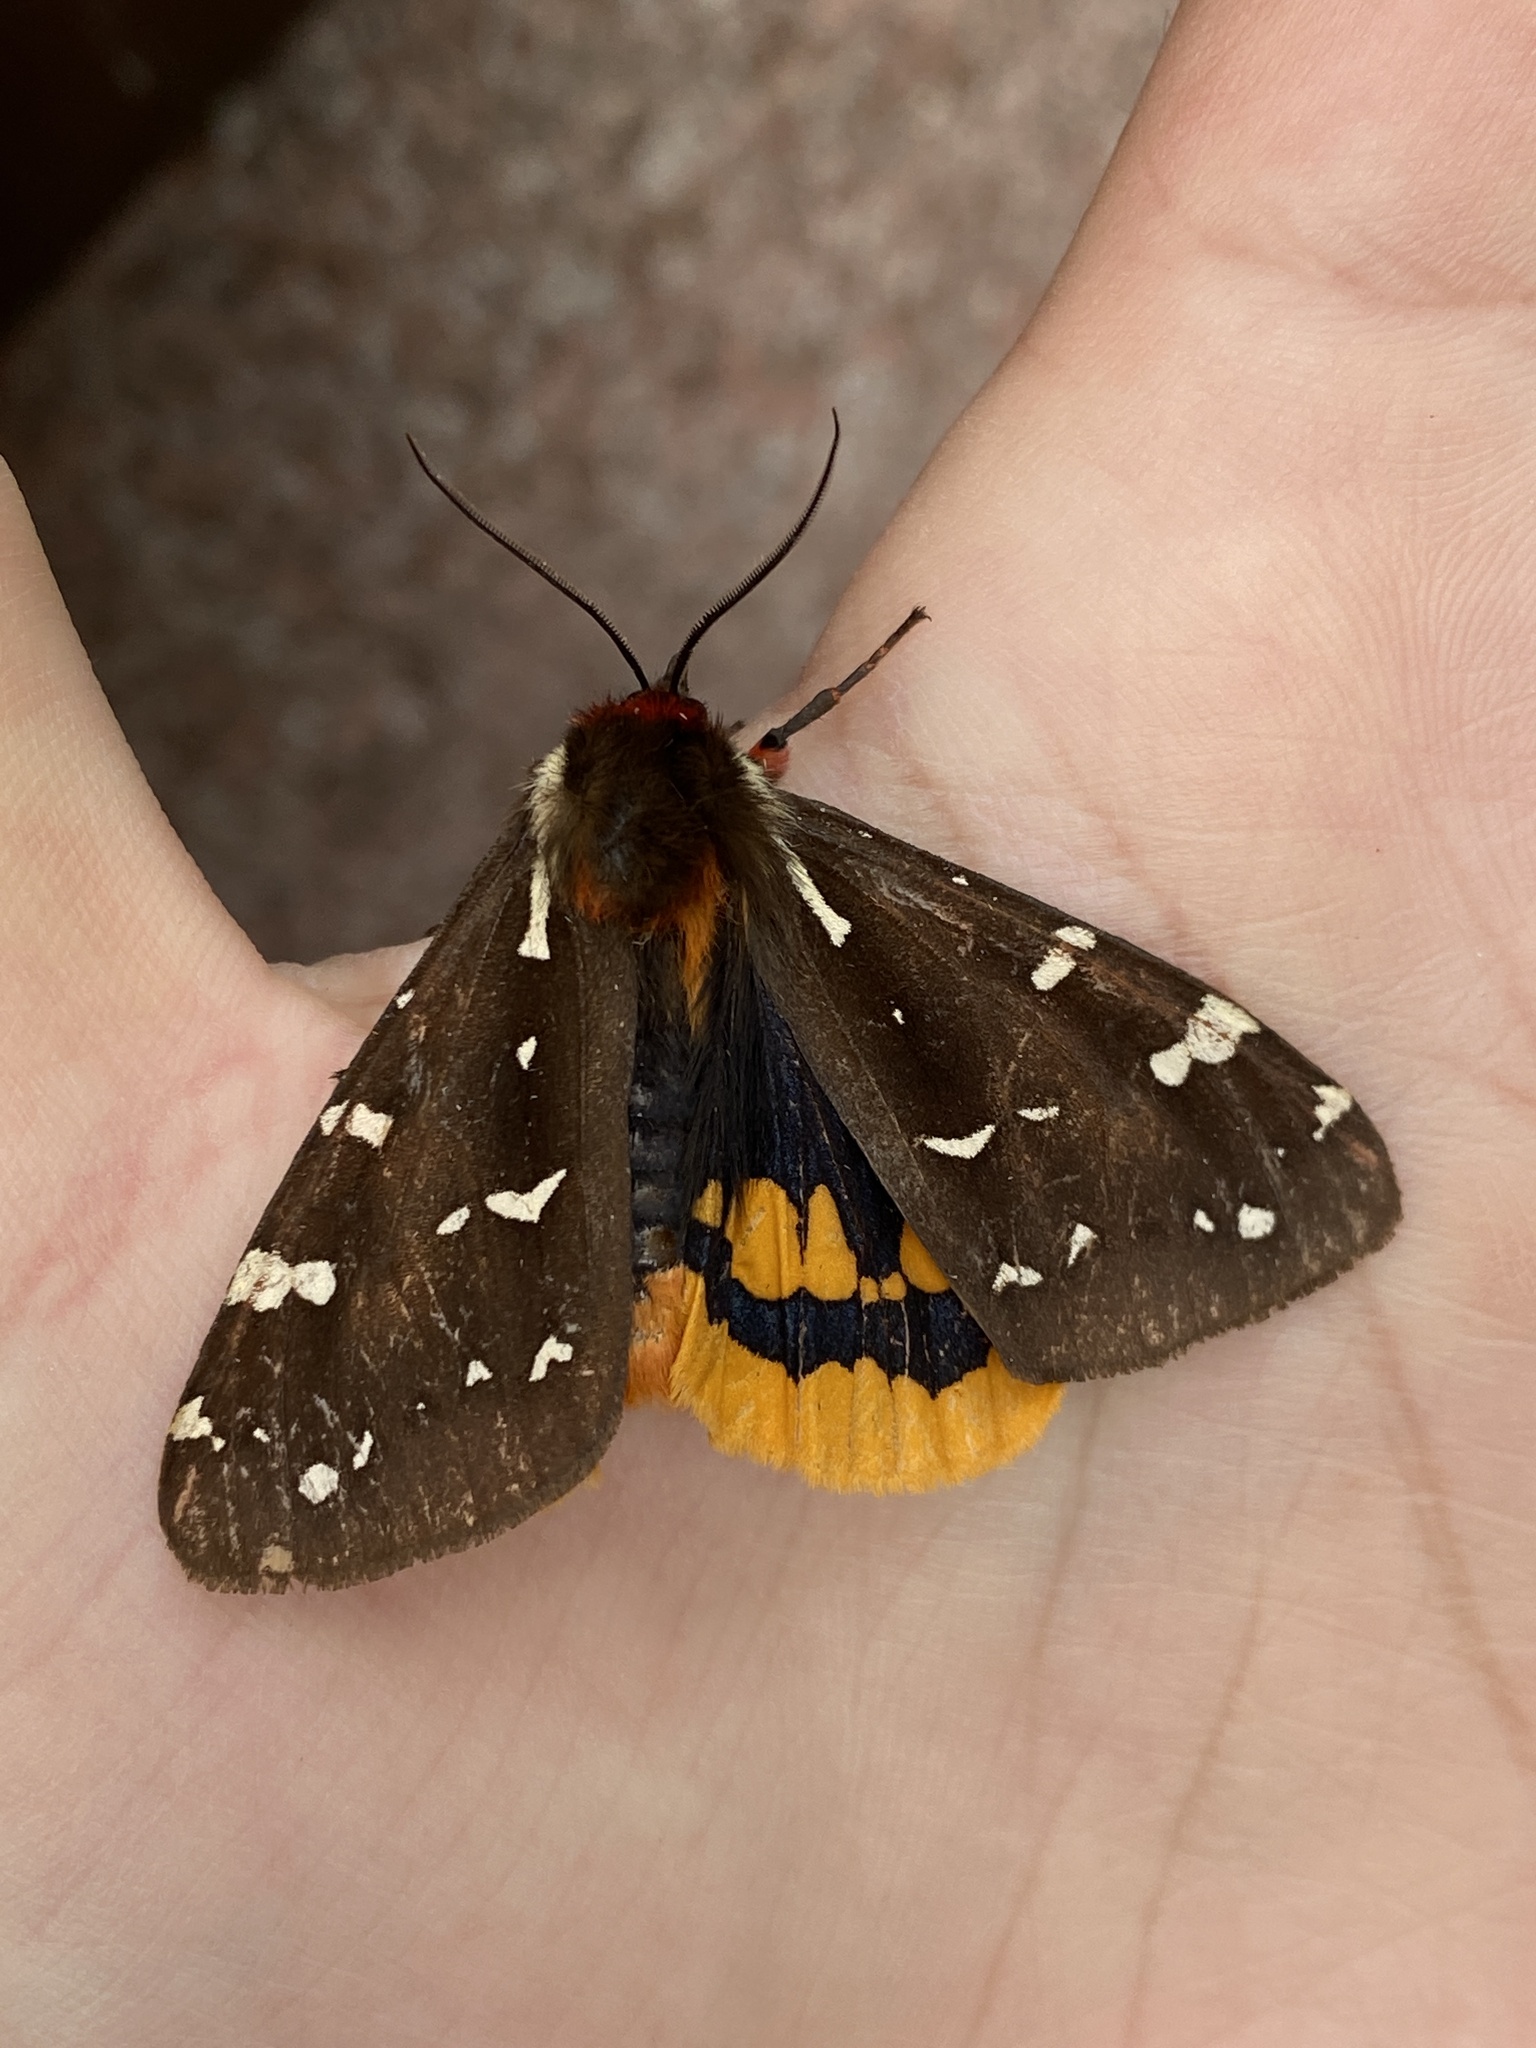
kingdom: Animalia
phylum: Arthropoda
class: Insecta
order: Lepidoptera
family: Erebidae
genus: Arctia
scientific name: Arctia parthenos
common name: St. lawrence tiger moth
